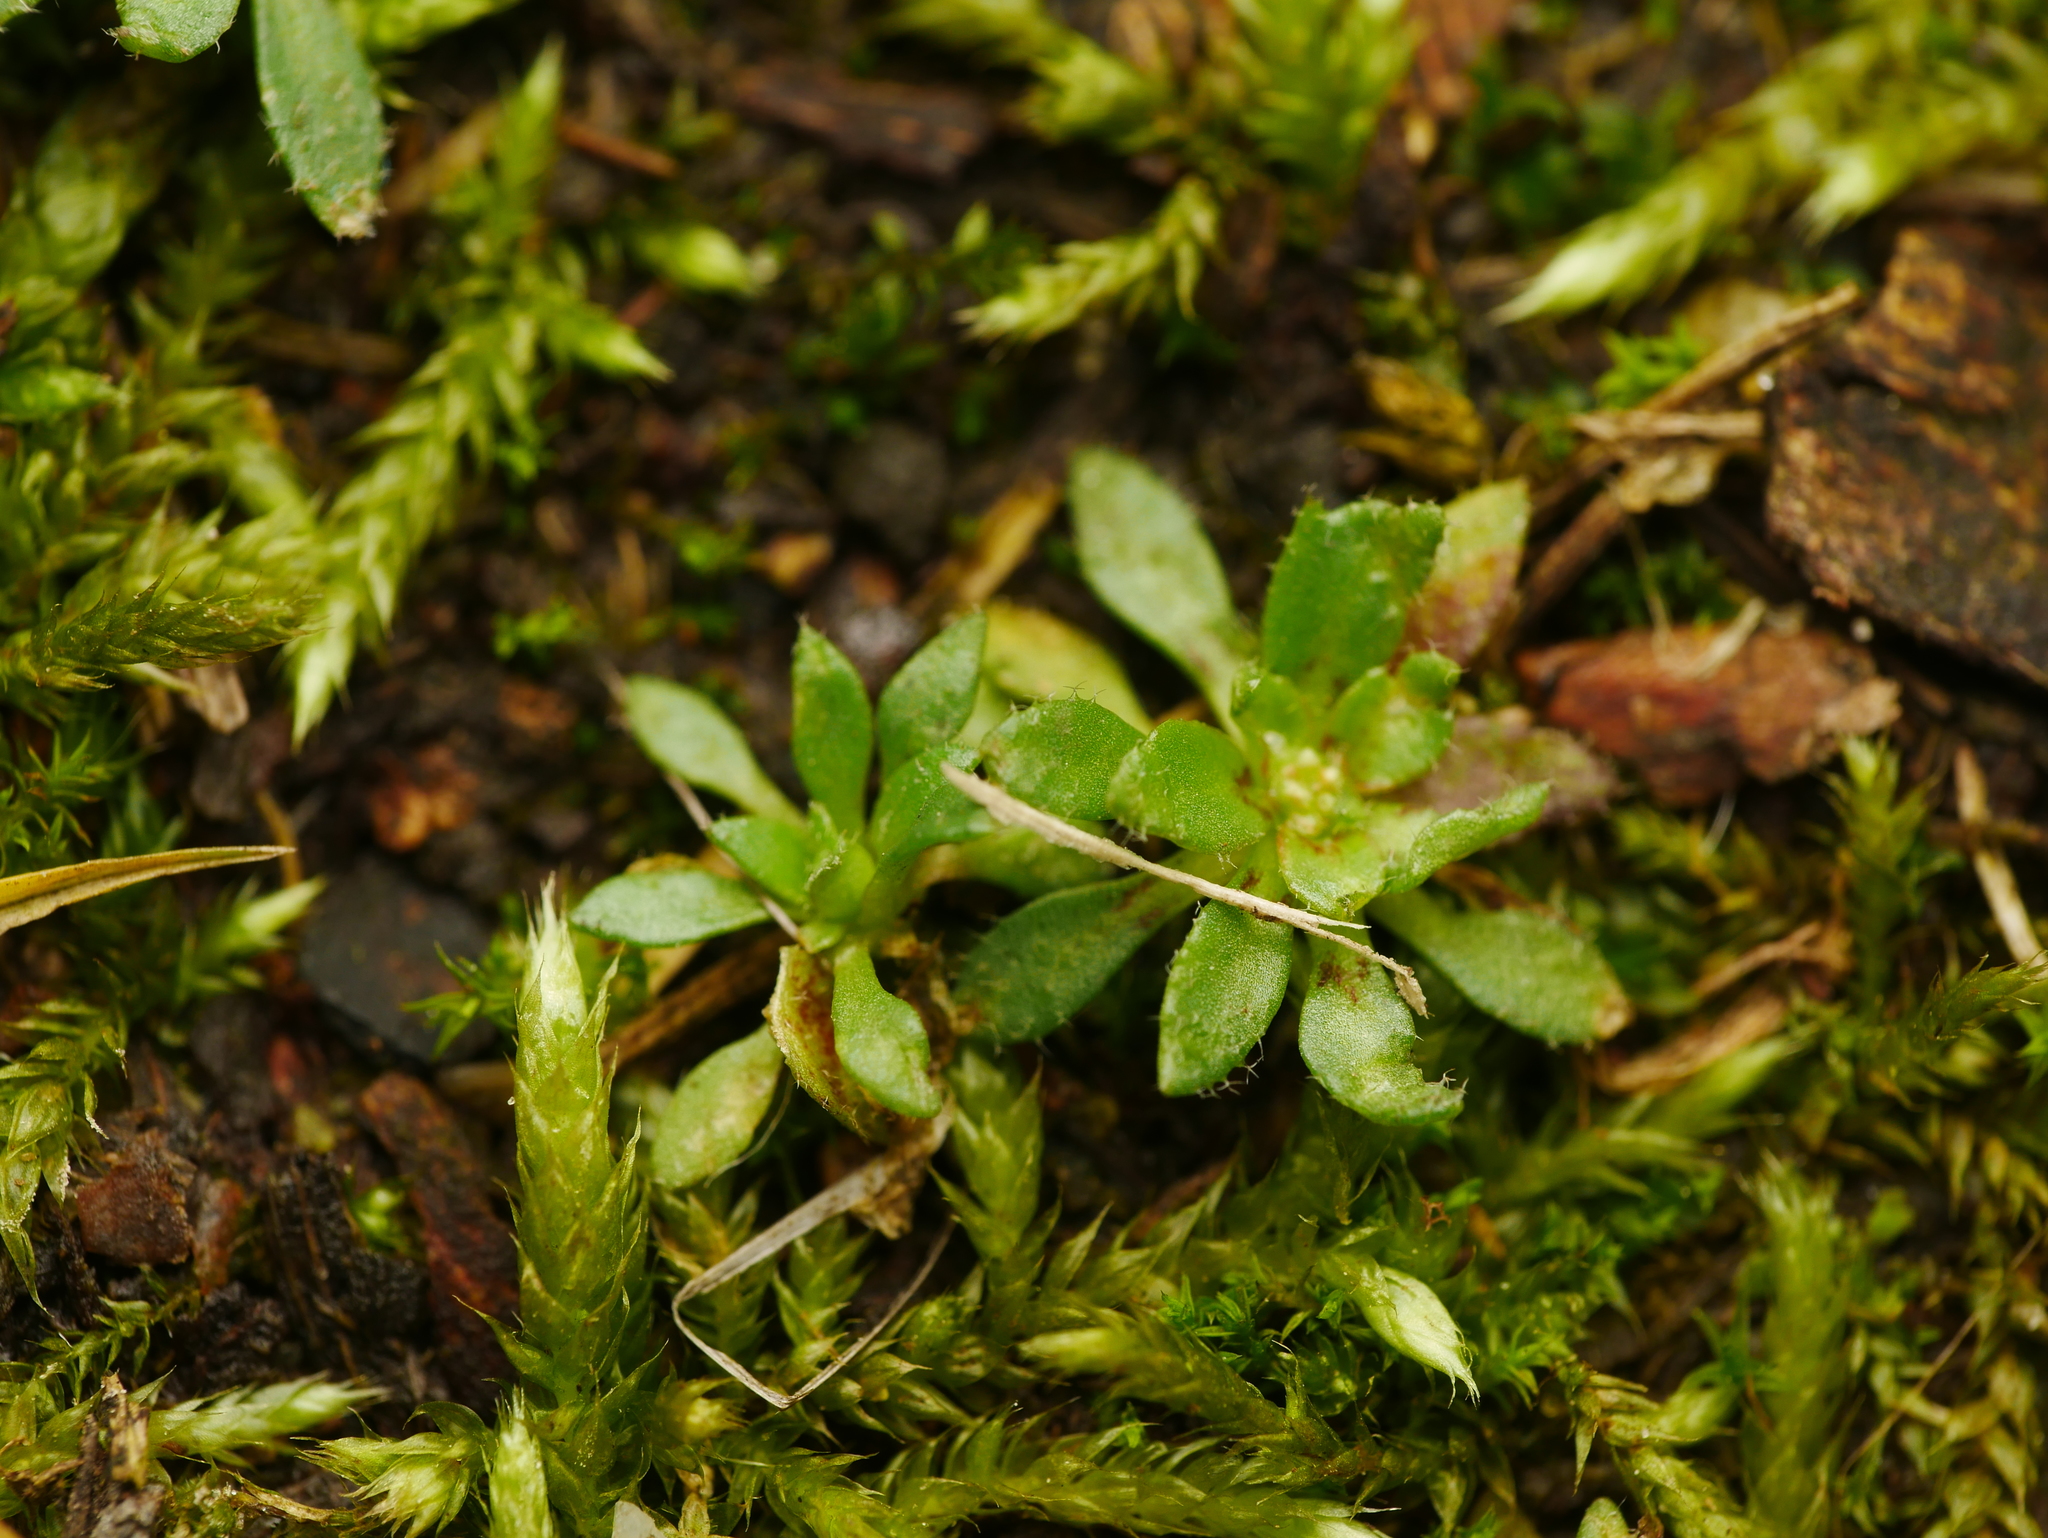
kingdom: Plantae
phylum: Tracheophyta
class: Magnoliopsida
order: Brassicales
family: Brassicaceae
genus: Draba
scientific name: Draba verna
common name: Spring draba
